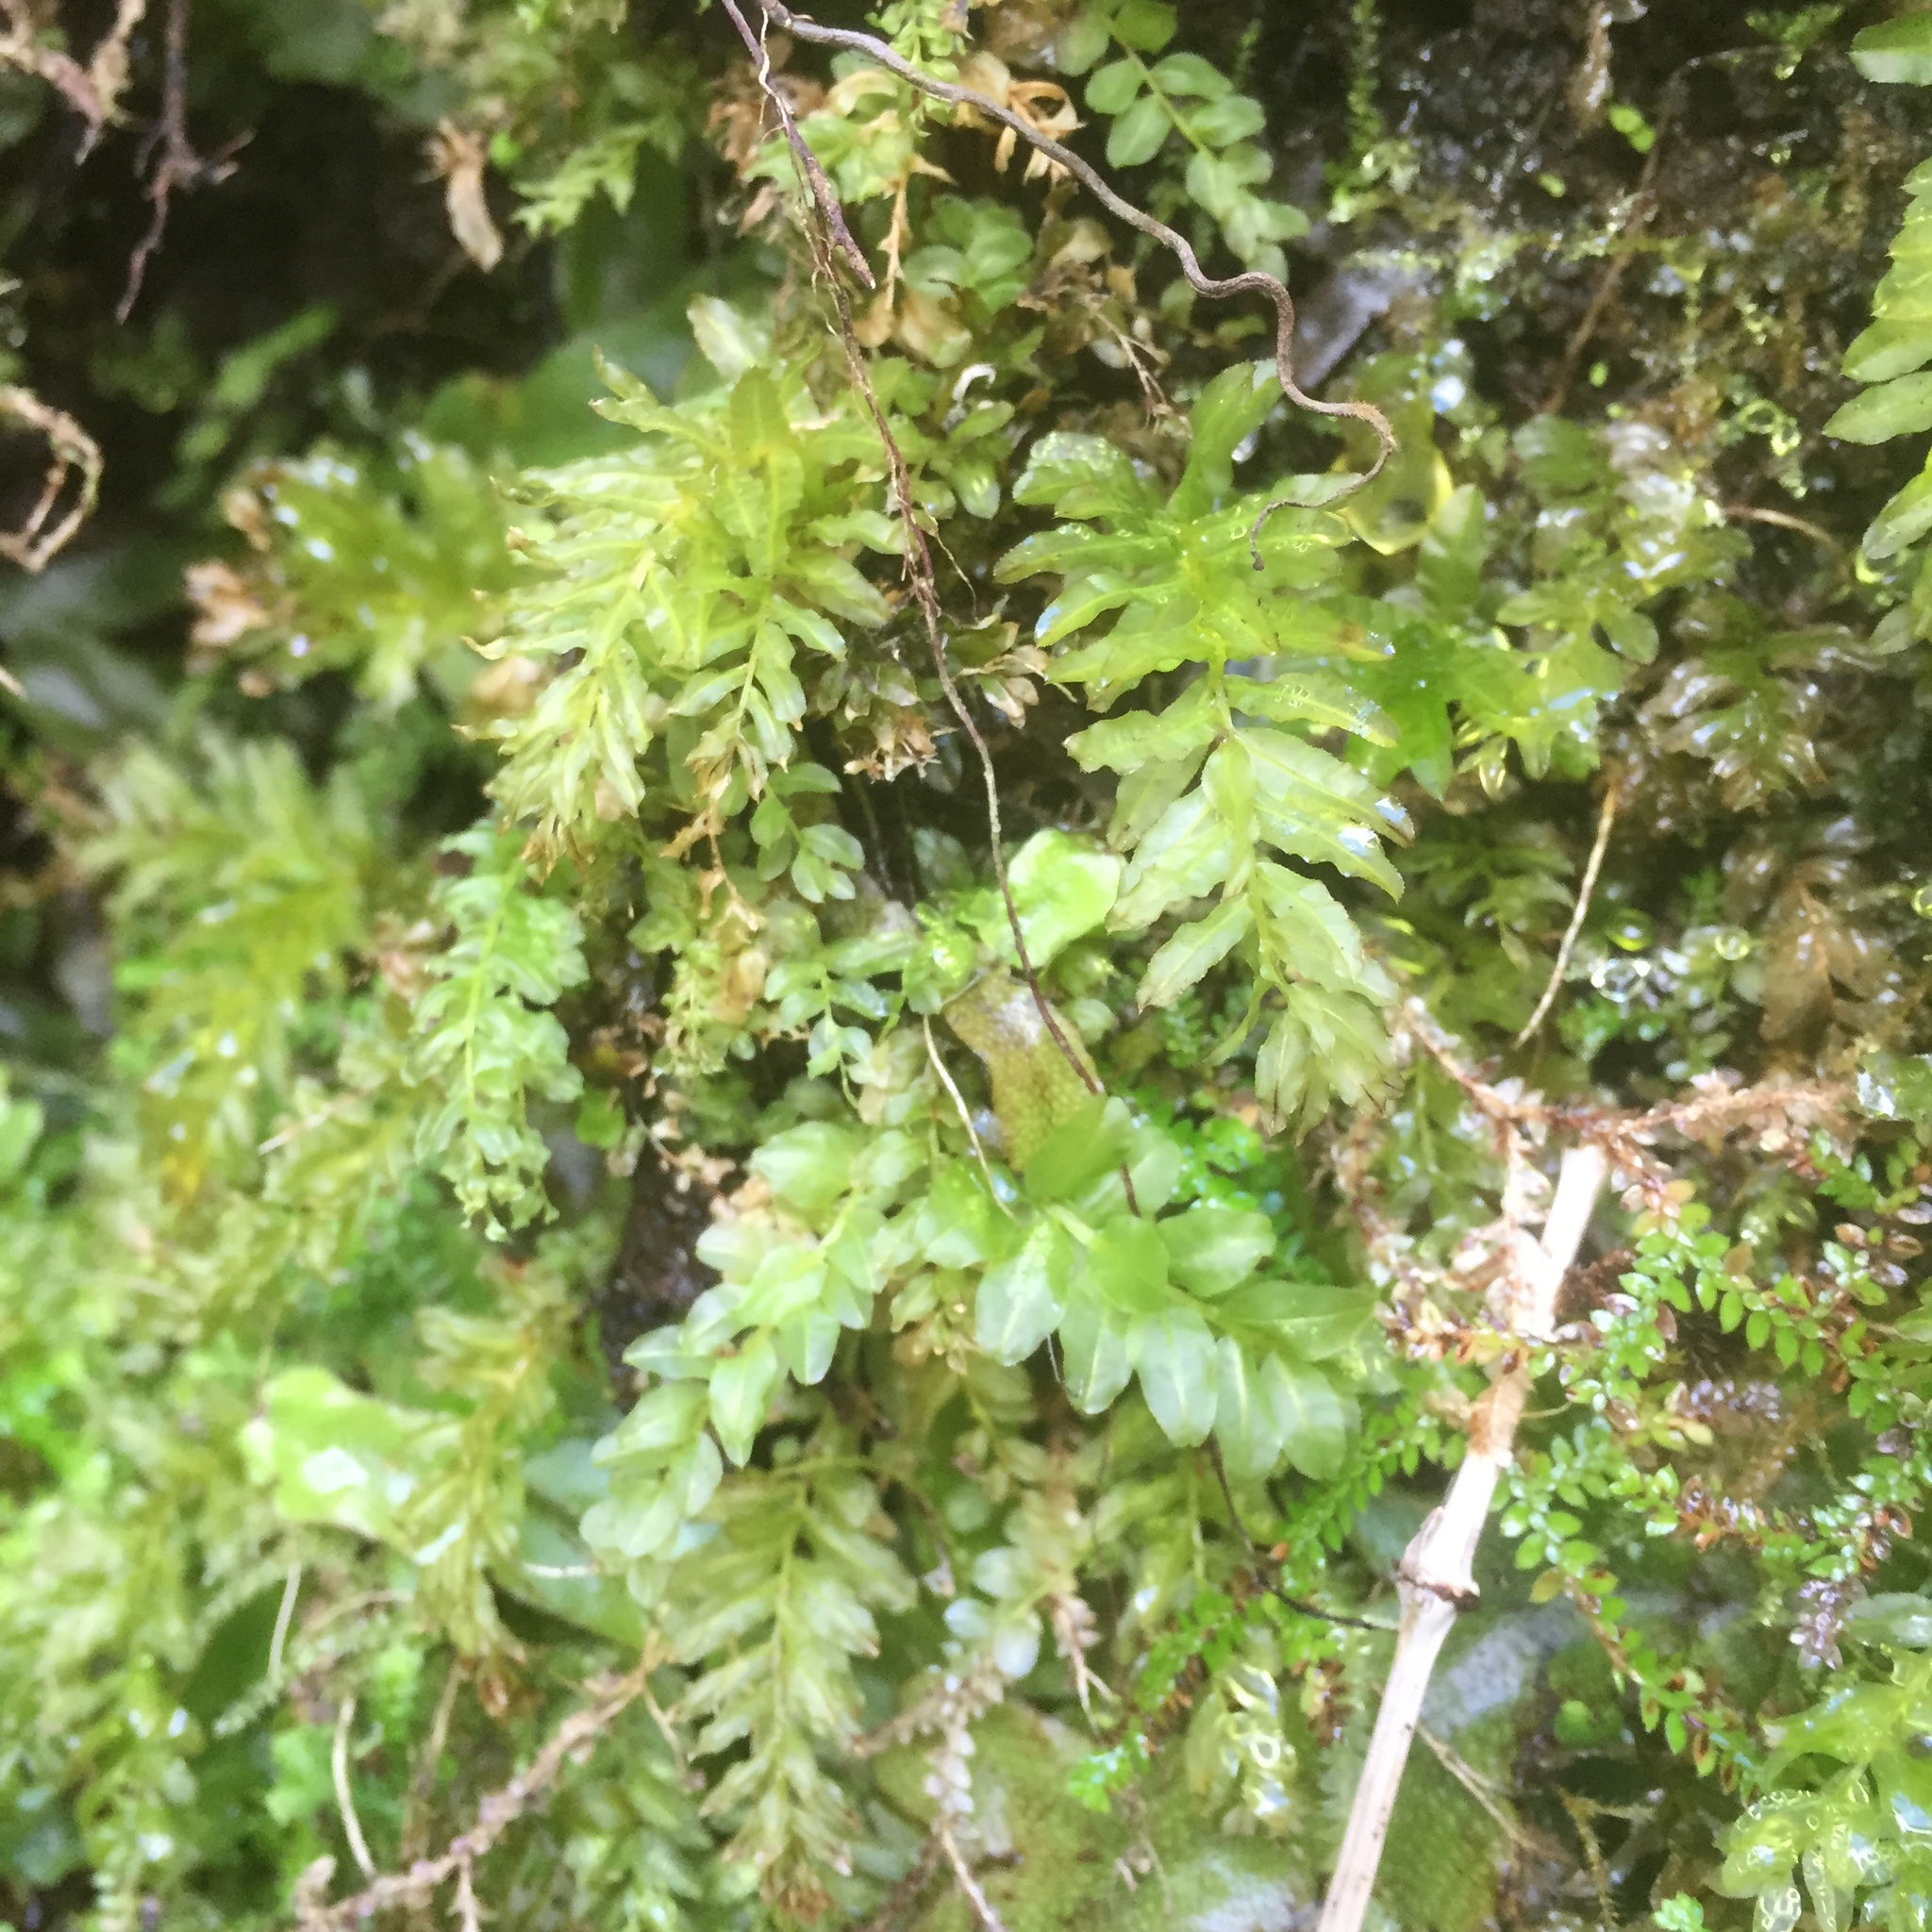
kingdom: Plantae
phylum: Bryophyta
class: Bryopsida
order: Bryales
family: Mniaceae
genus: Plagiomnium
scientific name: Plagiomnium undulatum
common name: Hart's-tongue thyme-moss
